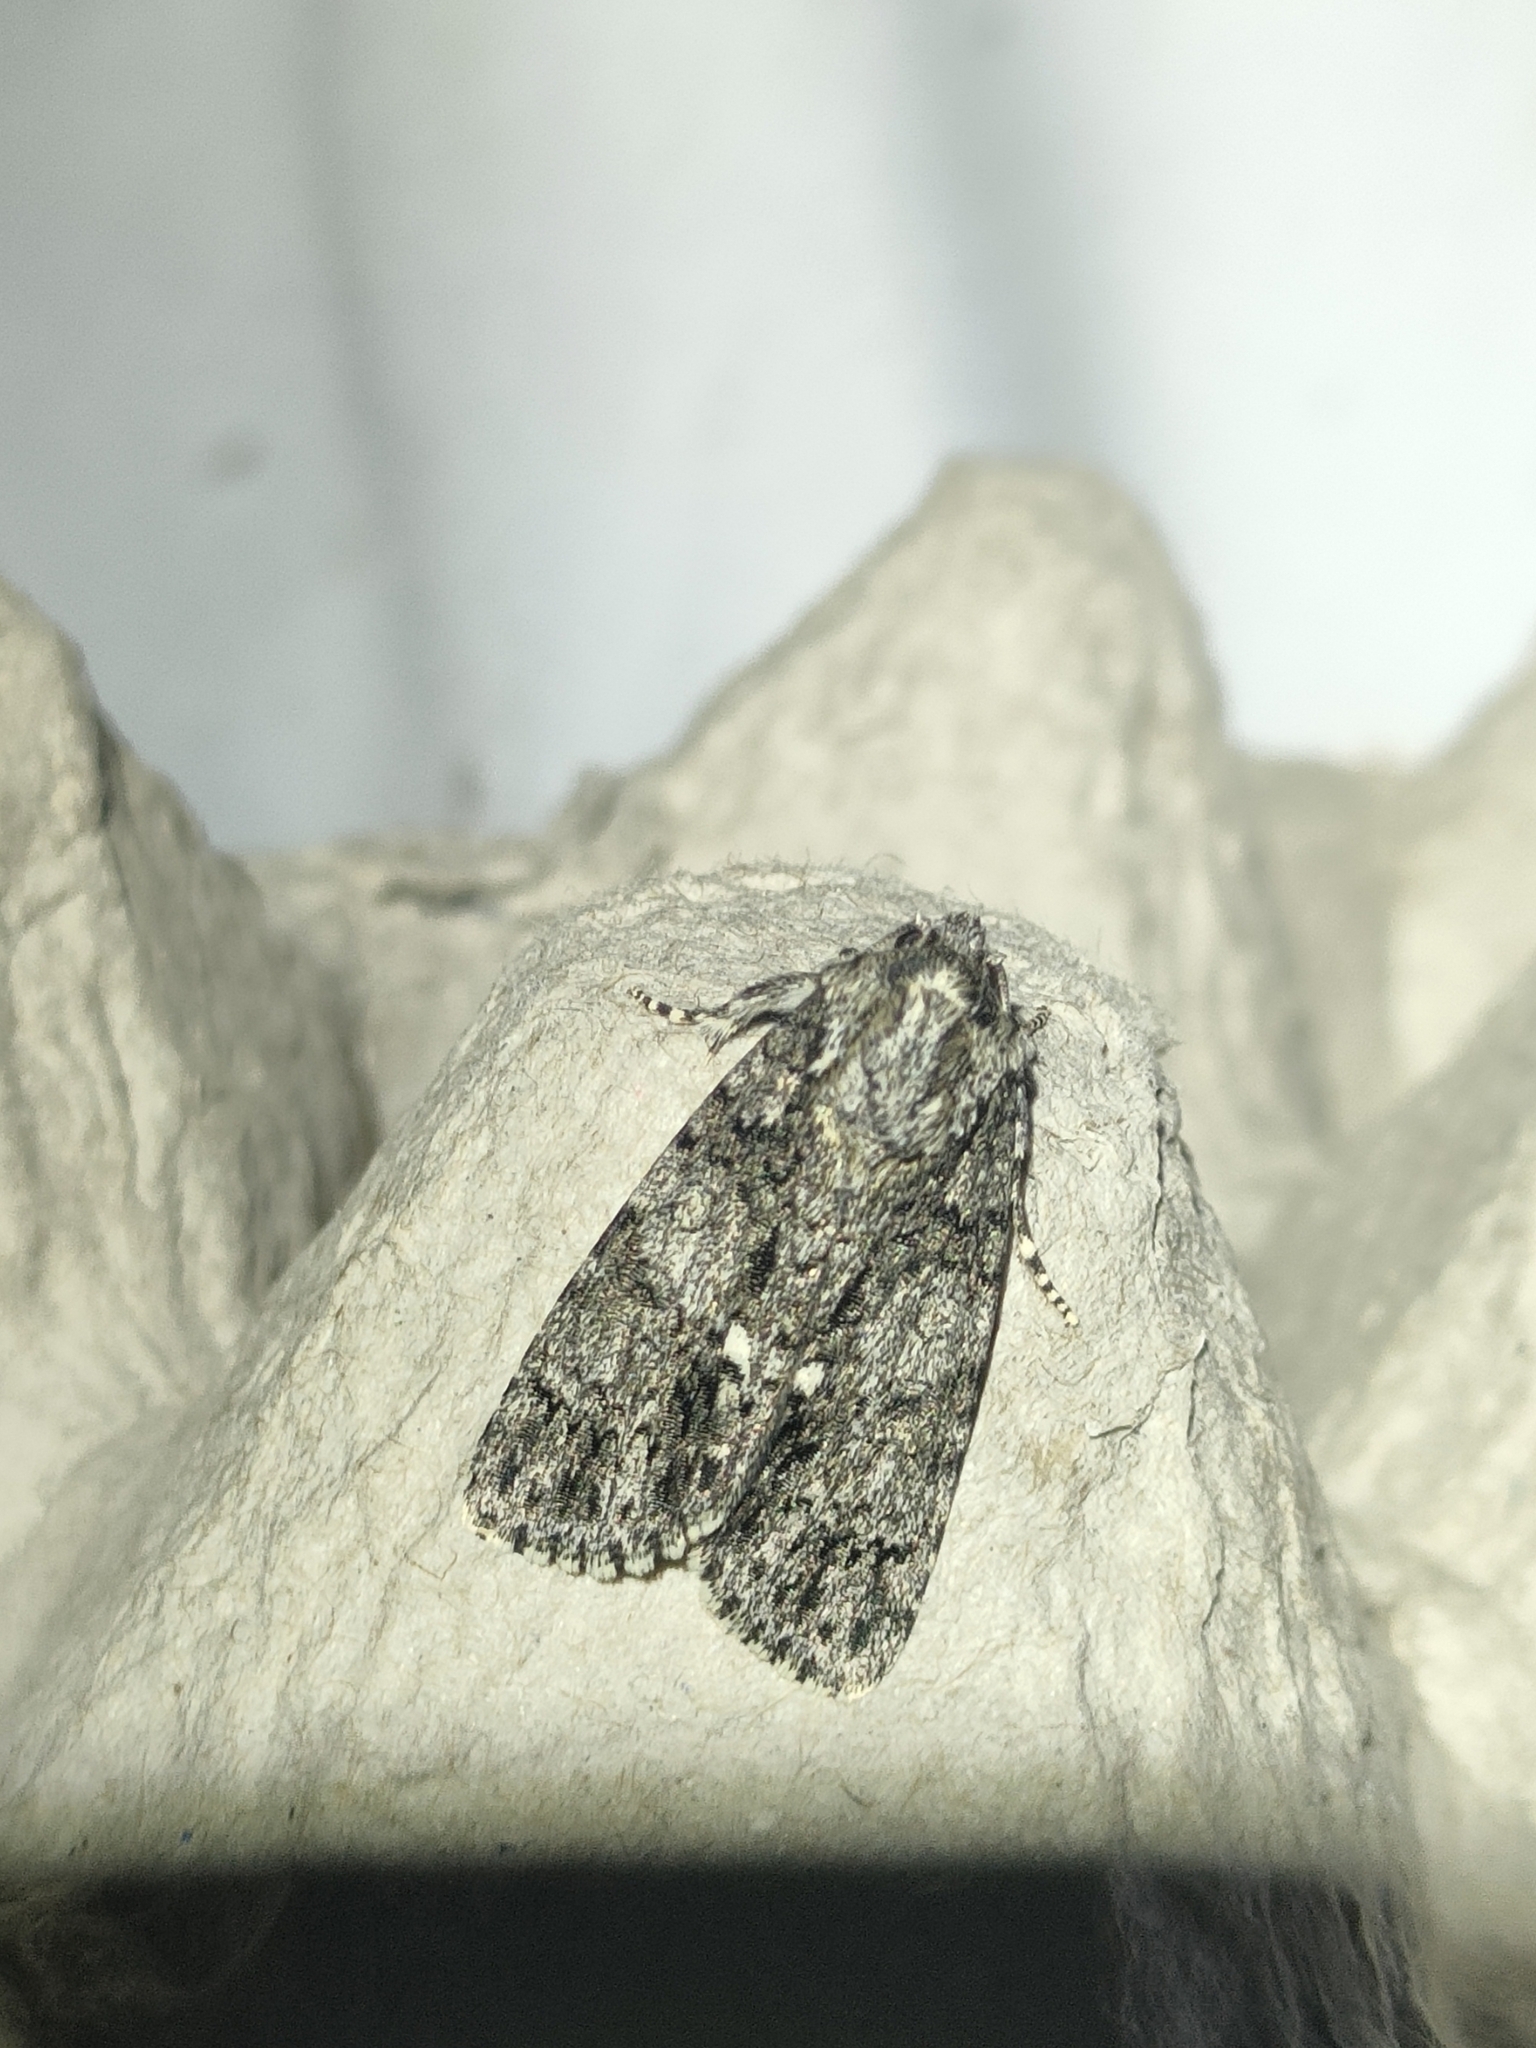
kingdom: Animalia
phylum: Arthropoda
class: Insecta
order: Lepidoptera
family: Noctuidae
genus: Acronicta
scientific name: Acronicta rumicis
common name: Knot grass
